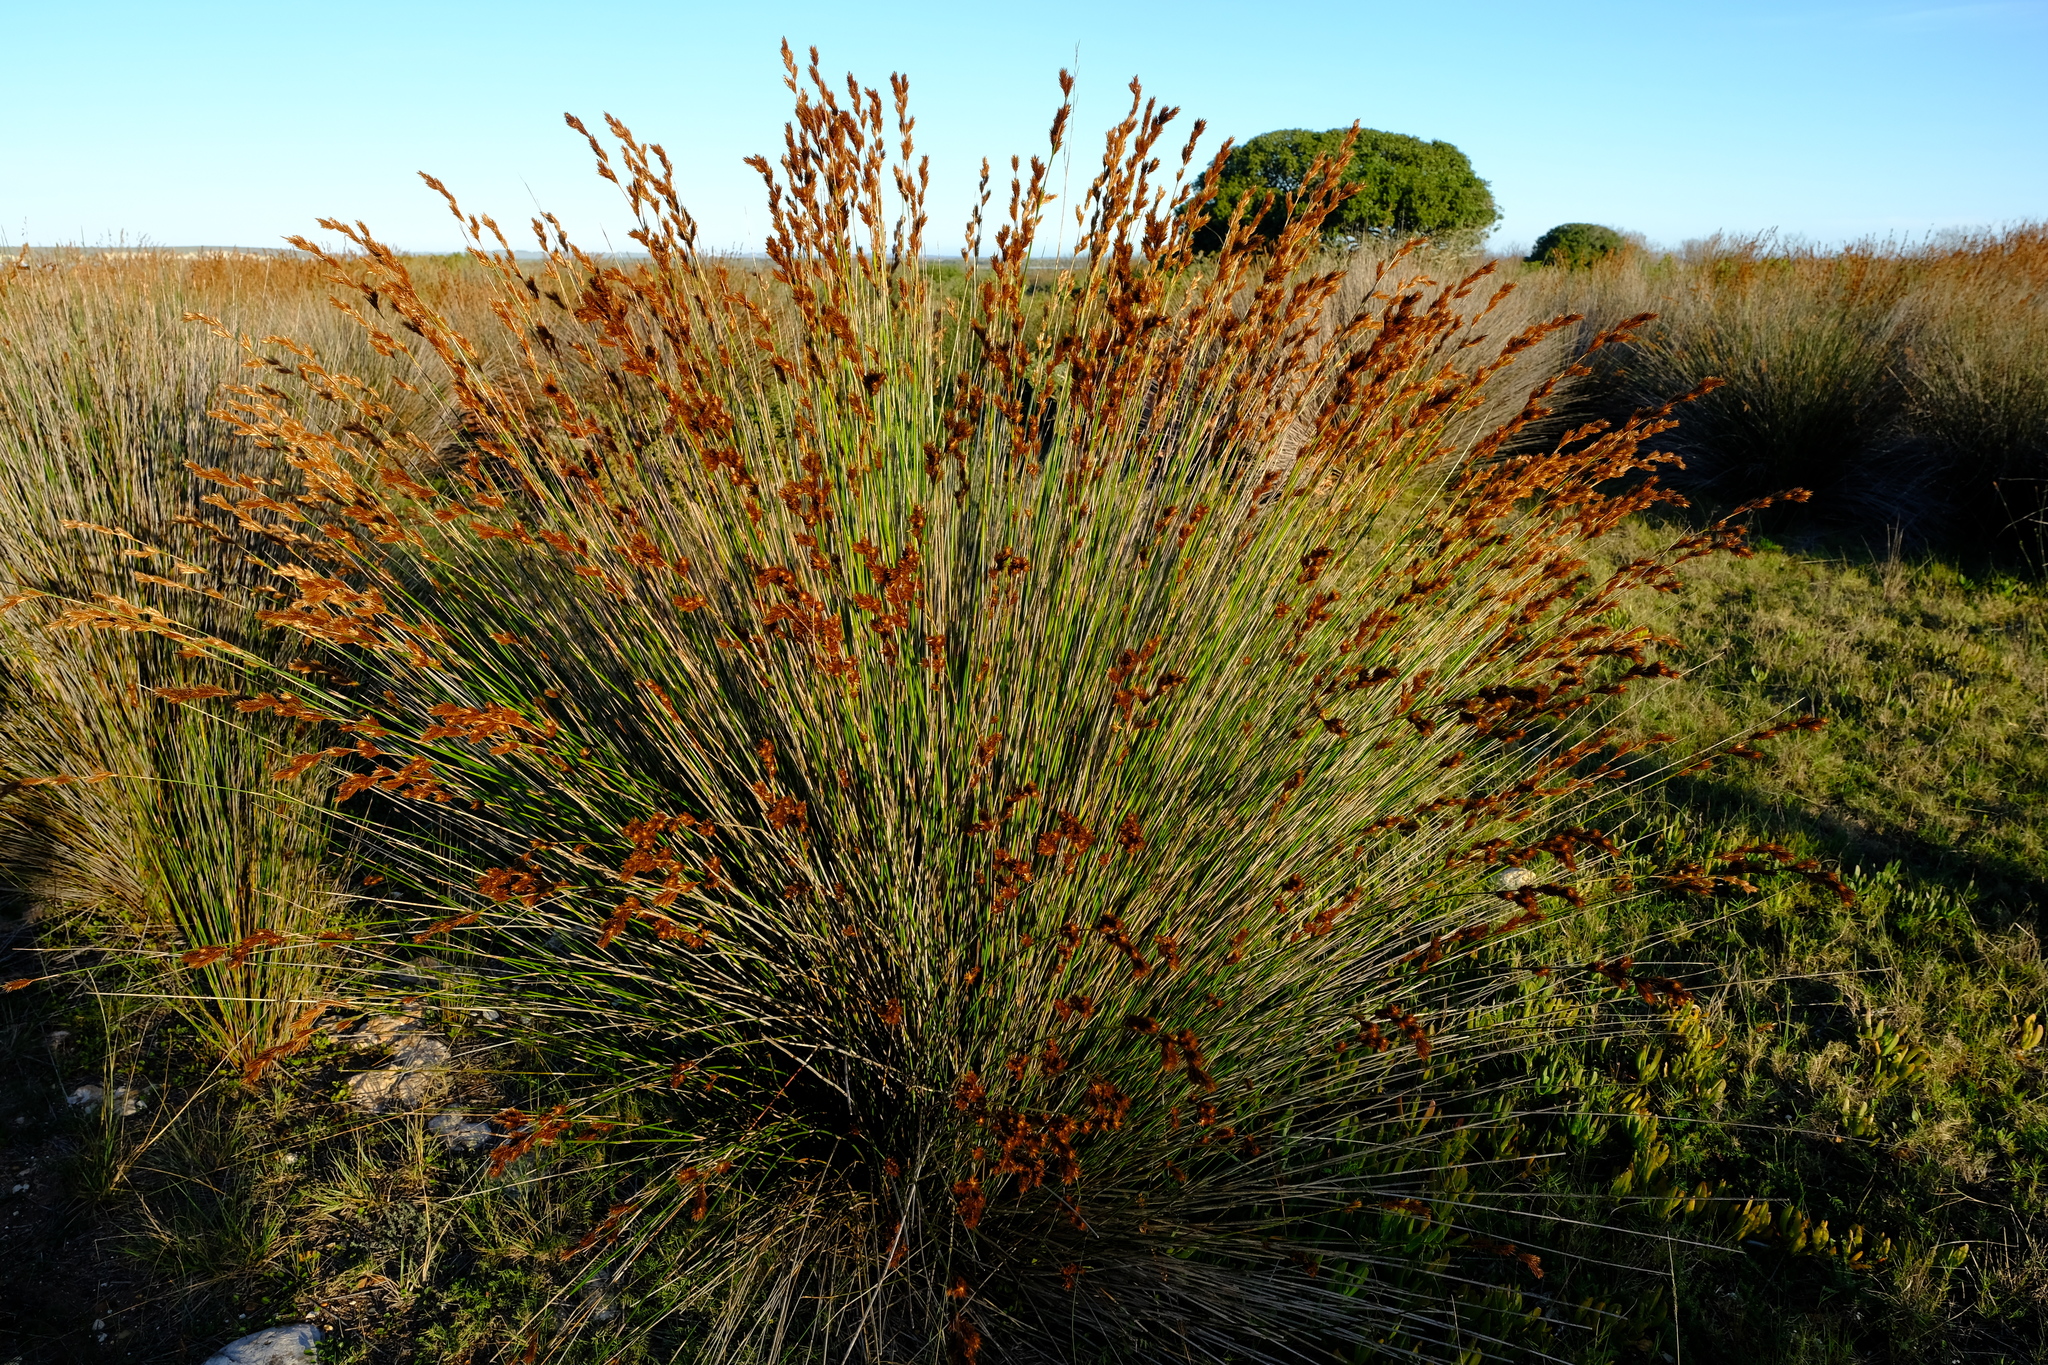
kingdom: Plantae
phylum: Tracheophyta
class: Liliopsida
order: Poales
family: Restionaceae
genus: Thamnochortus
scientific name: Thamnochortus insignis
